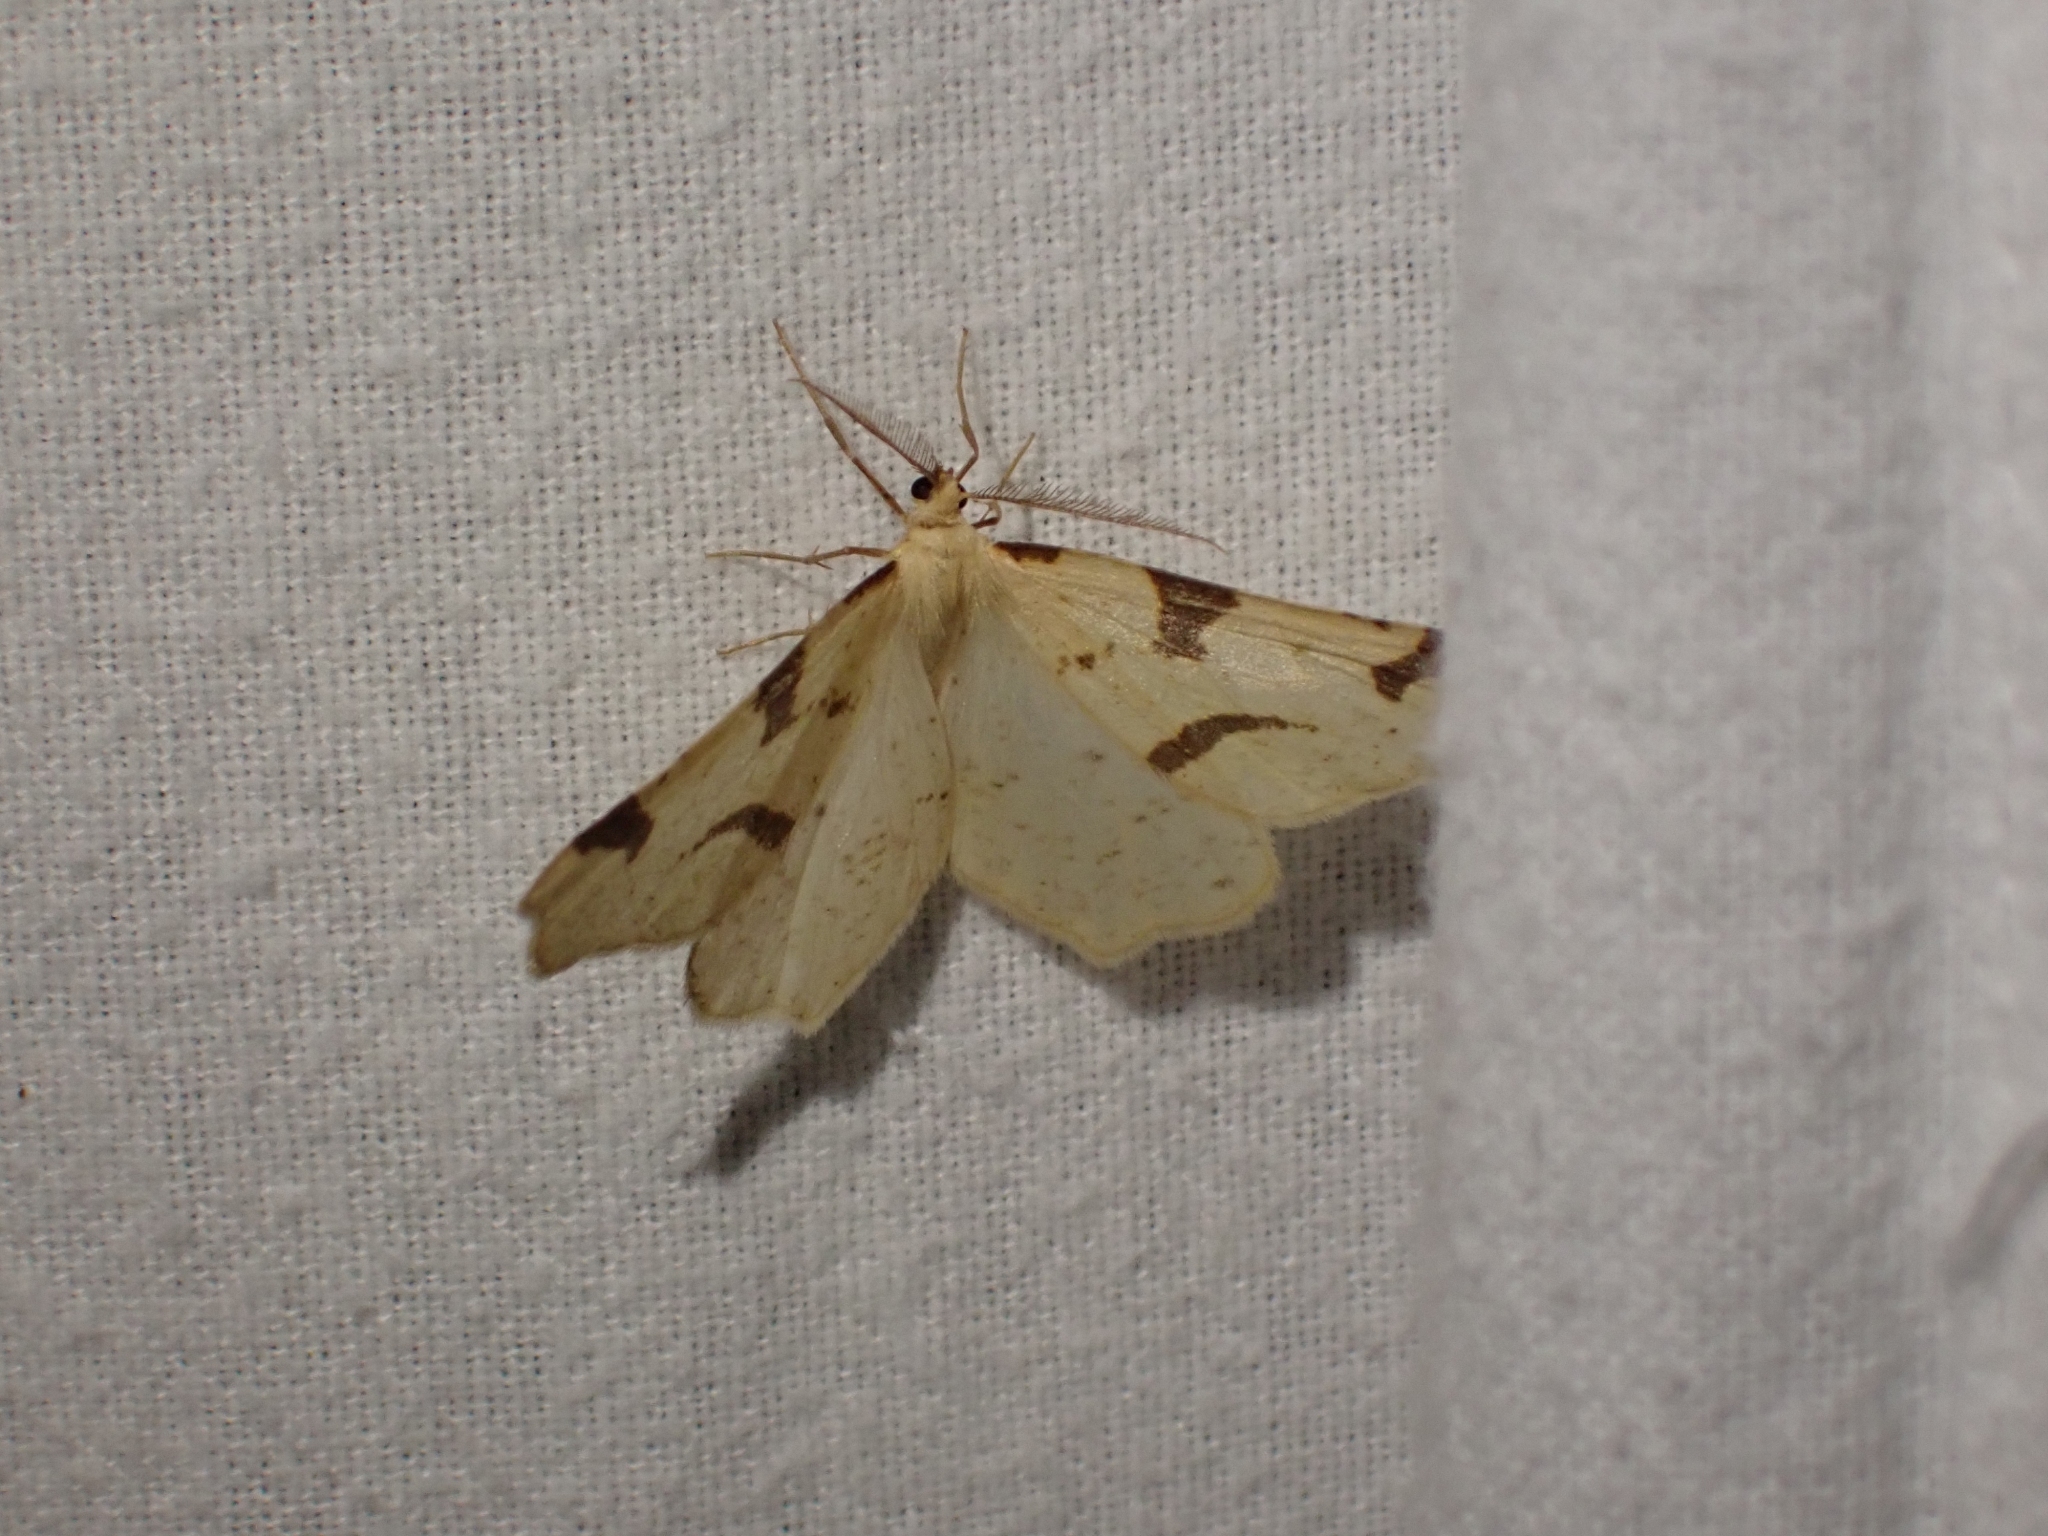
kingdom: Animalia
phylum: Arthropoda
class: Insecta
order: Lepidoptera
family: Geometridae
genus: Neoterpes
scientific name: Neoterpes trianguliferata
